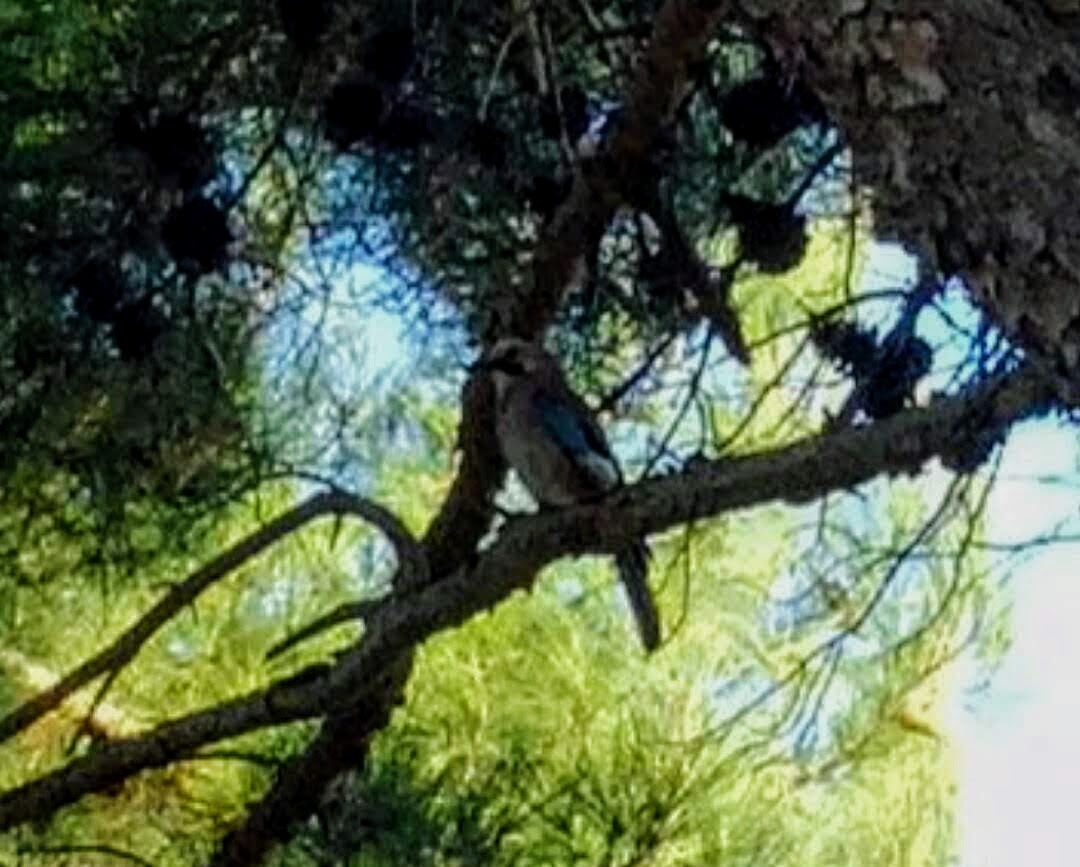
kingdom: Animalia
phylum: Chordata
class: Aves
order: Passeriformes
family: Corvidae
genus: Garrulus
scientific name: Garrulus glandarius
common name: Eurasian jay
